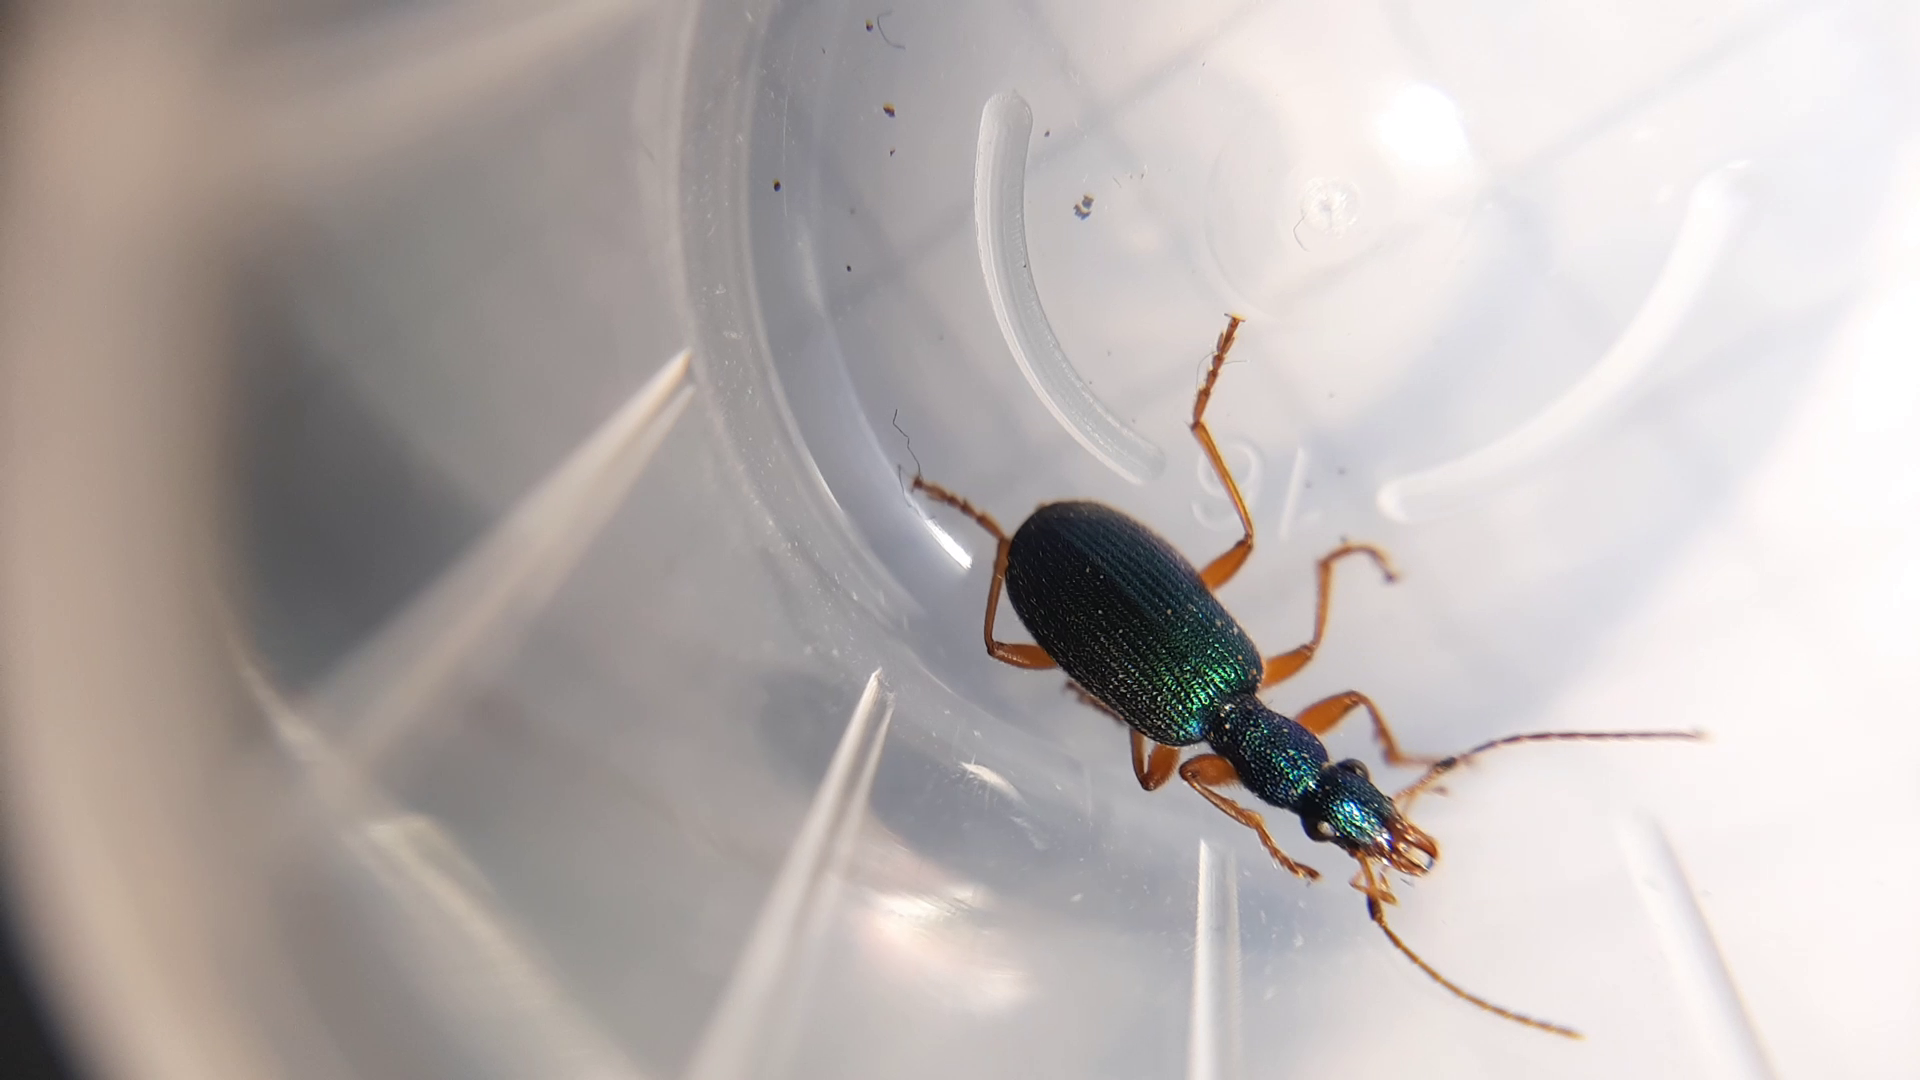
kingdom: Animalia
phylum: Arthropoda
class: Insecta
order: Coleoptera
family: Carabidae
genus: Drypta
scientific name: Drypta dentata
